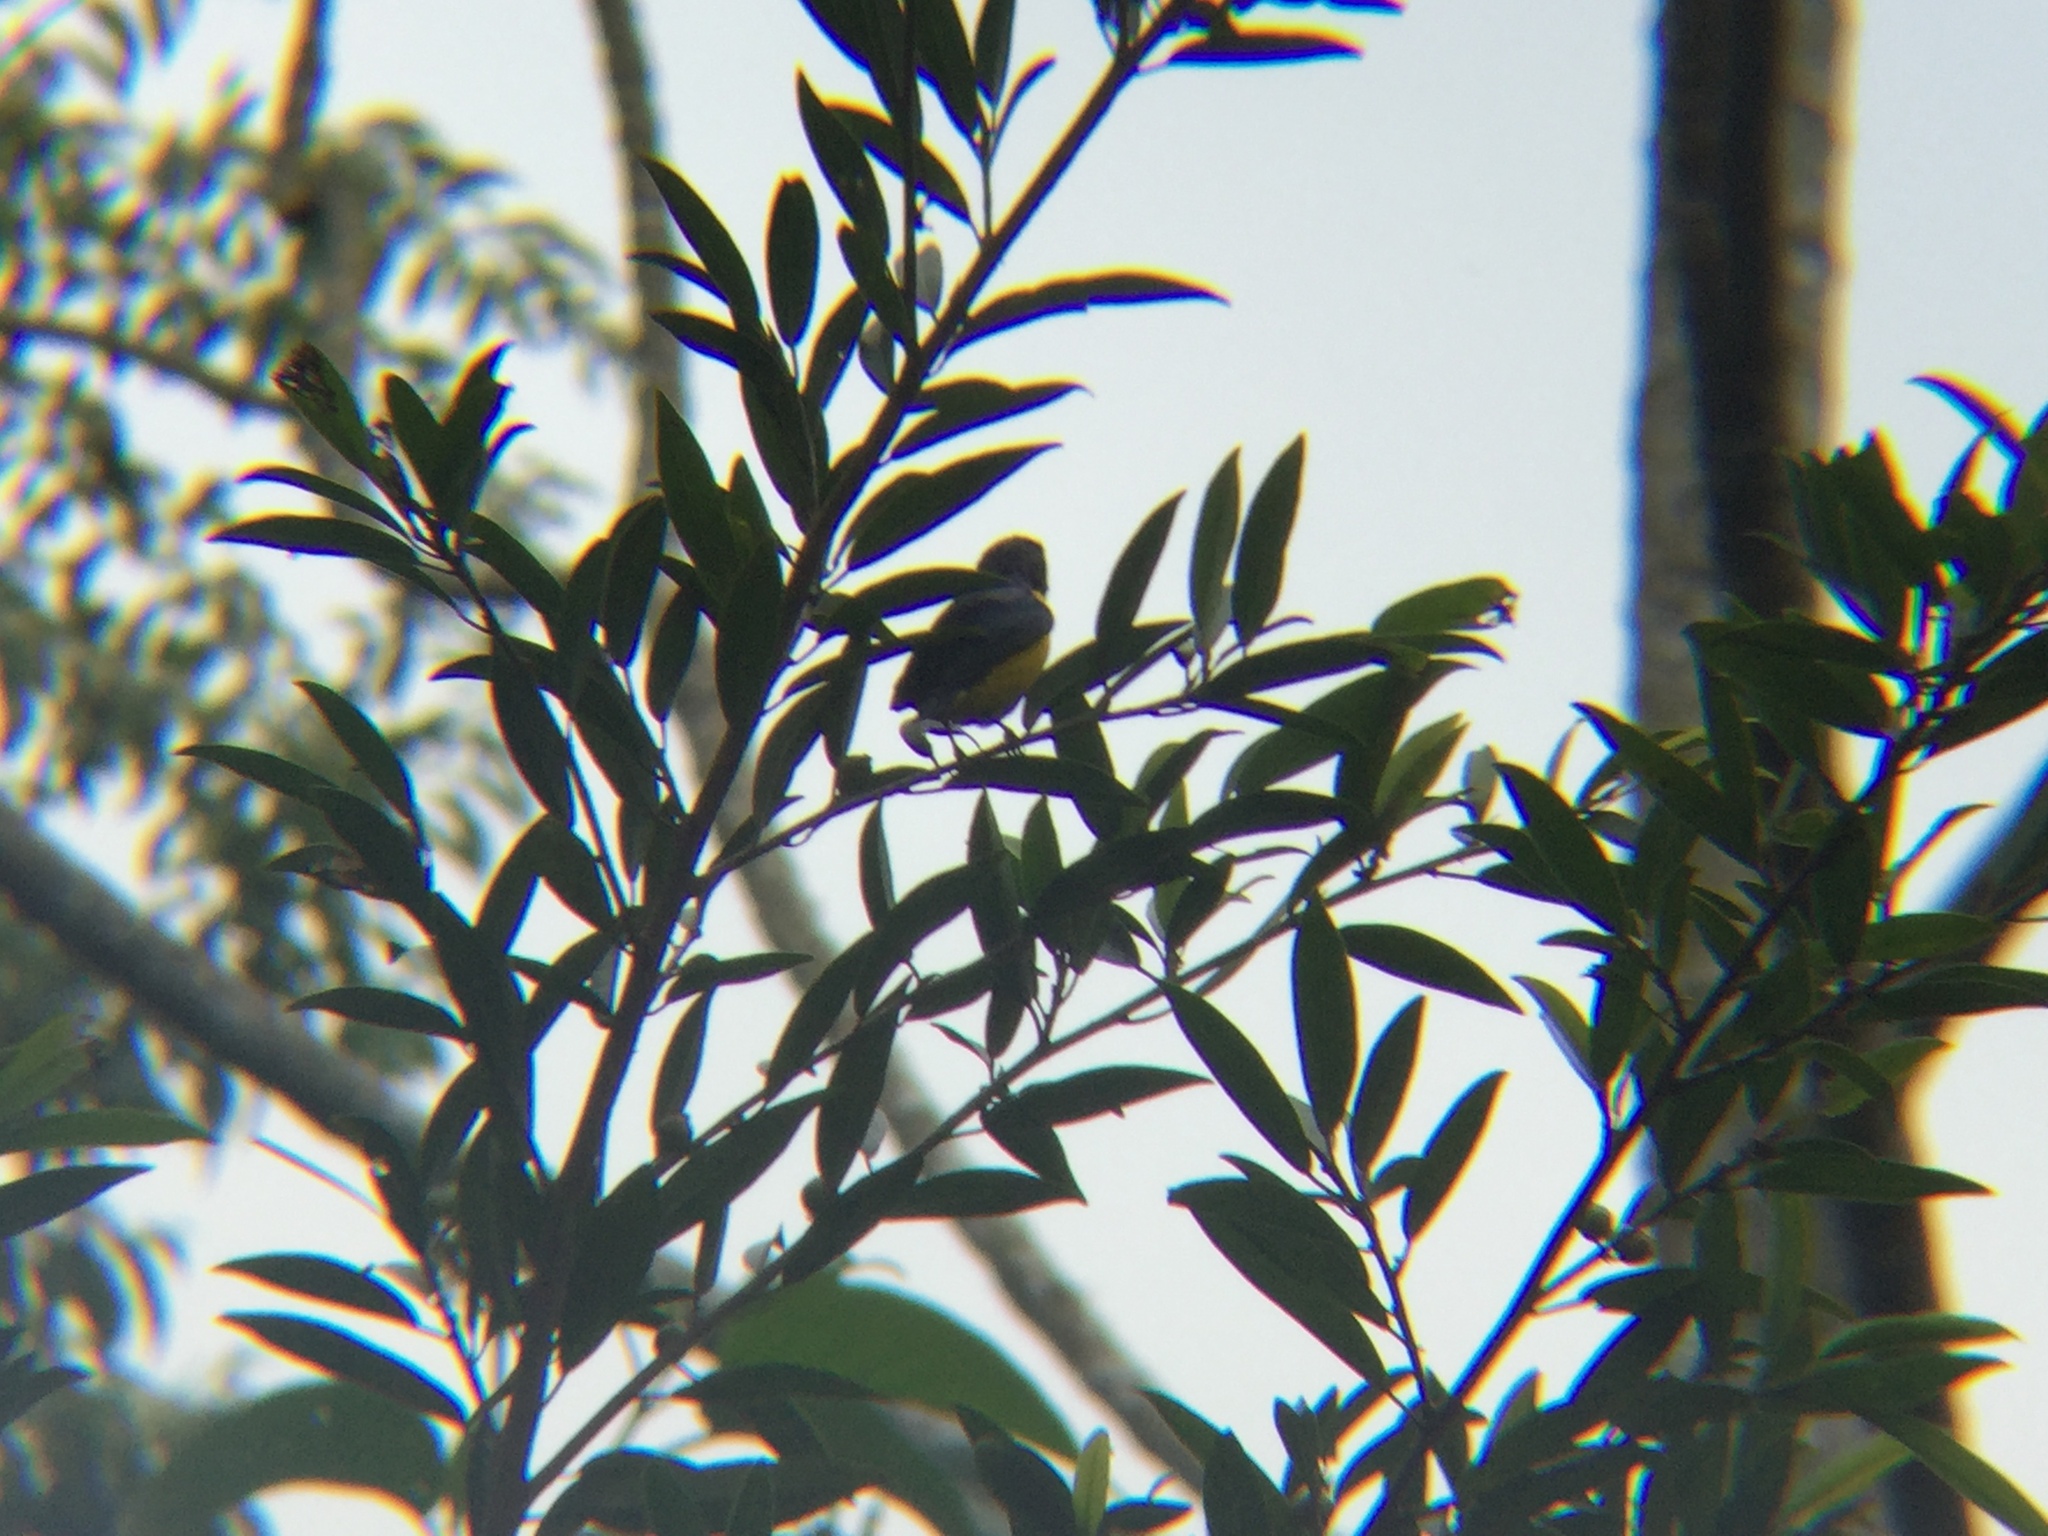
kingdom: Animalia
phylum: Chordata
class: Aves
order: Passeriformes
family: Fringillidae
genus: Euphonia
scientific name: Euphonia affinis
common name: Scrub euphonia
